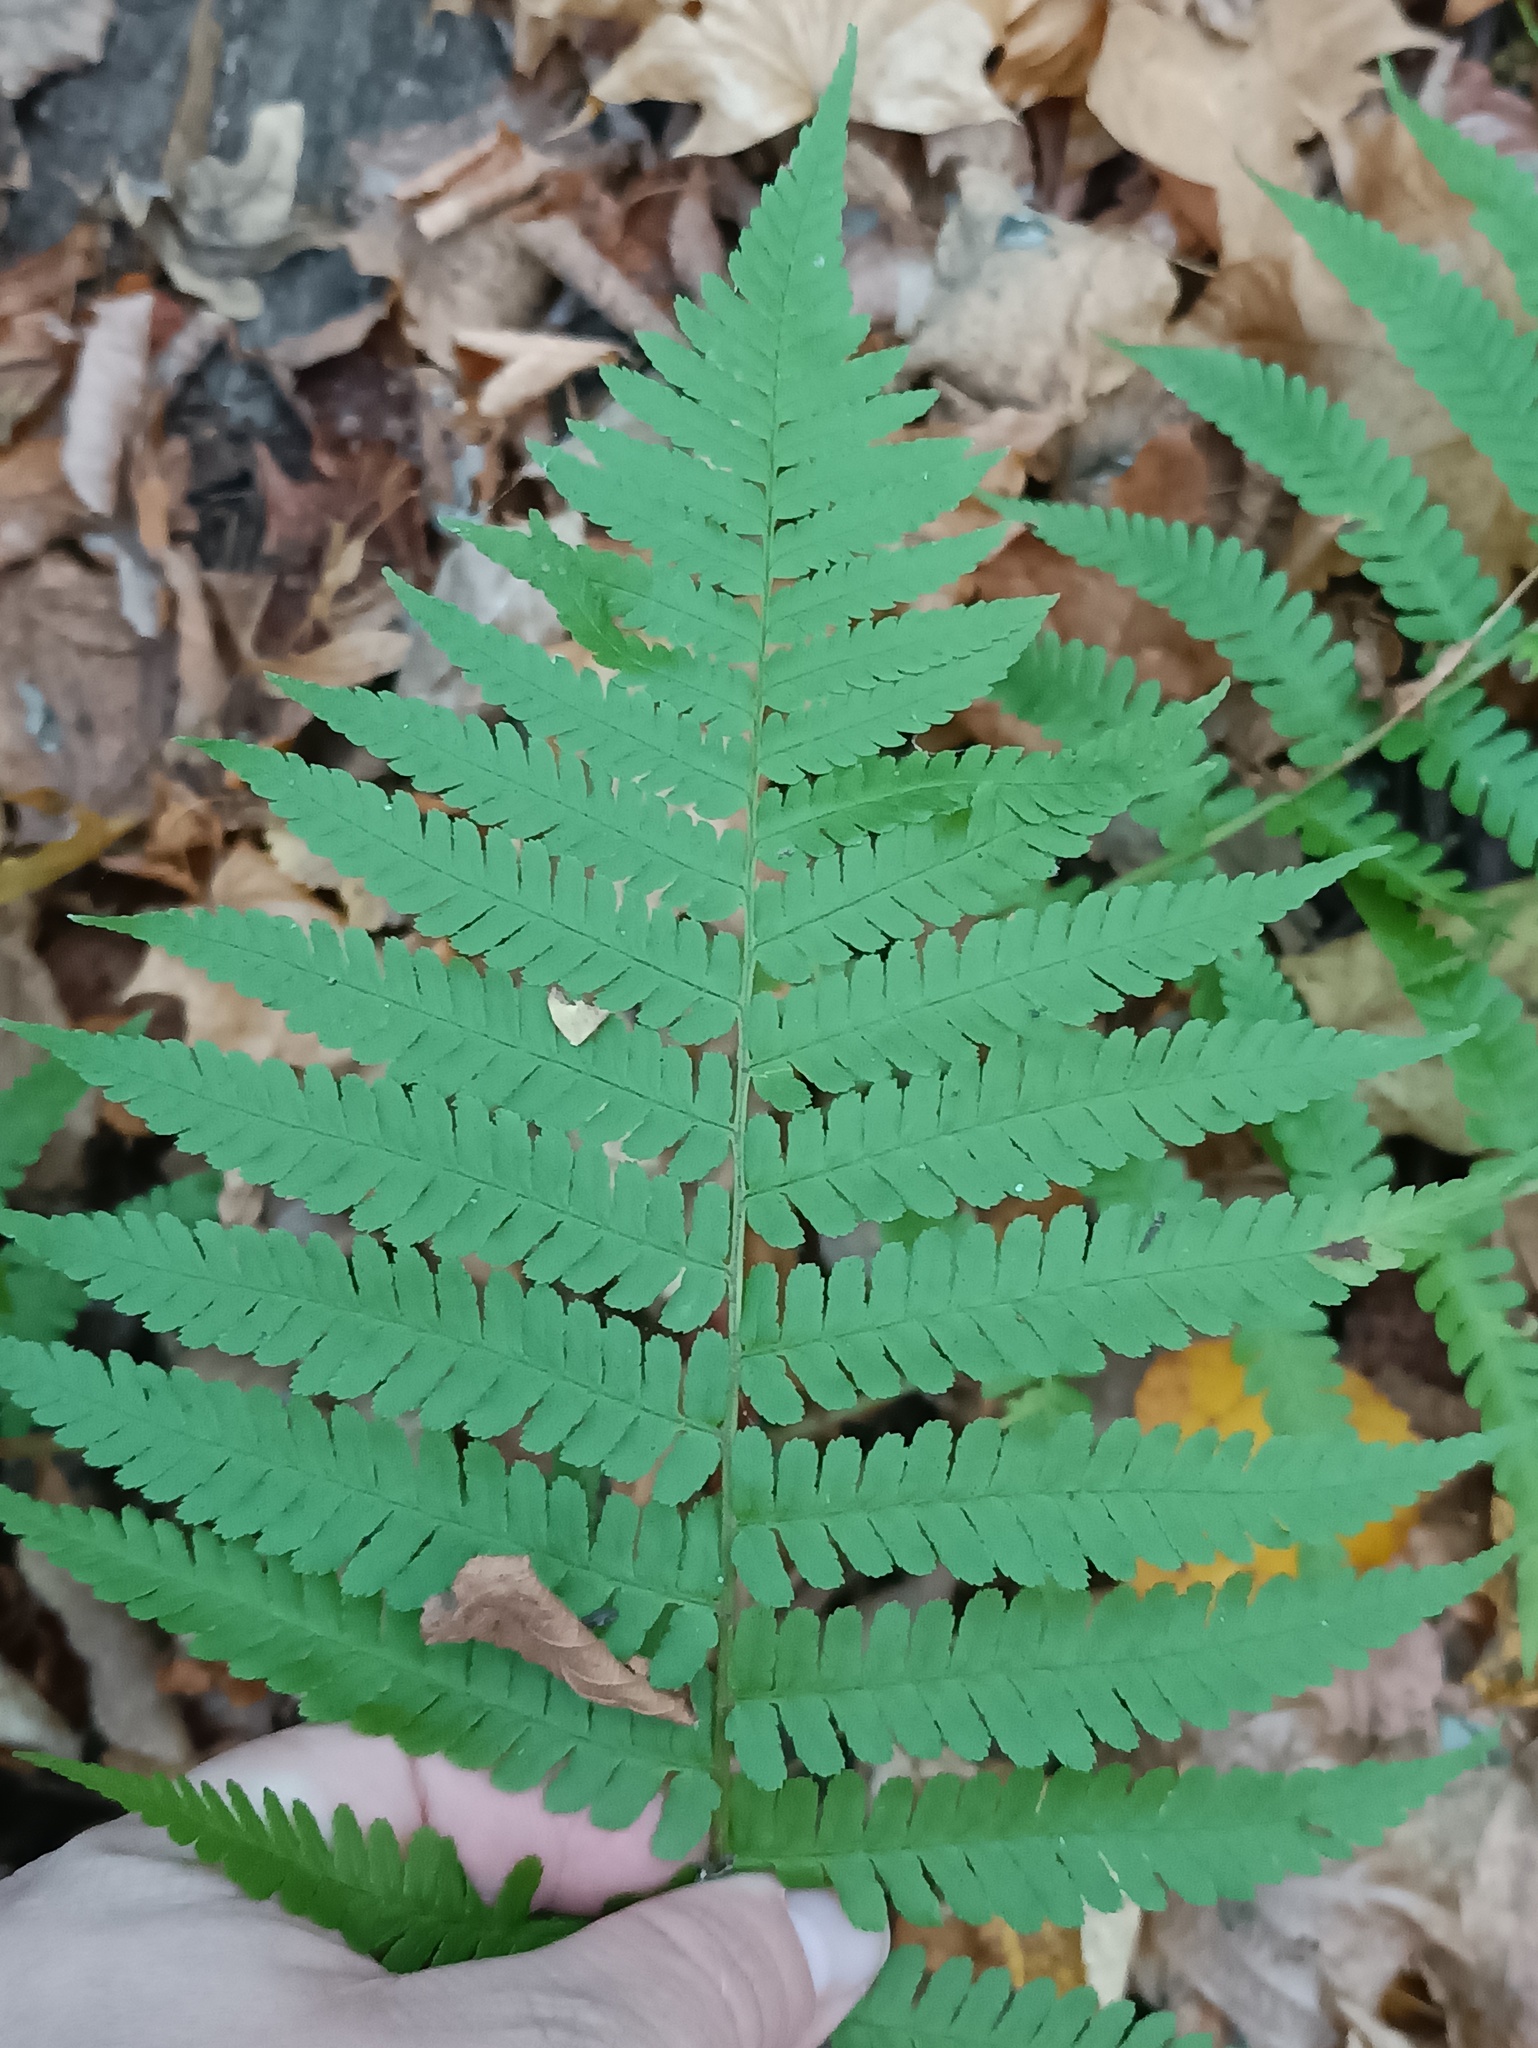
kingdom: Plantae
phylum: Tracheophyta
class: Polypodiopsida
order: Polypodiales
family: Dryopteridaceae
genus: Dryopteris
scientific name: Dryopteris filix-mas
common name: Male fern
